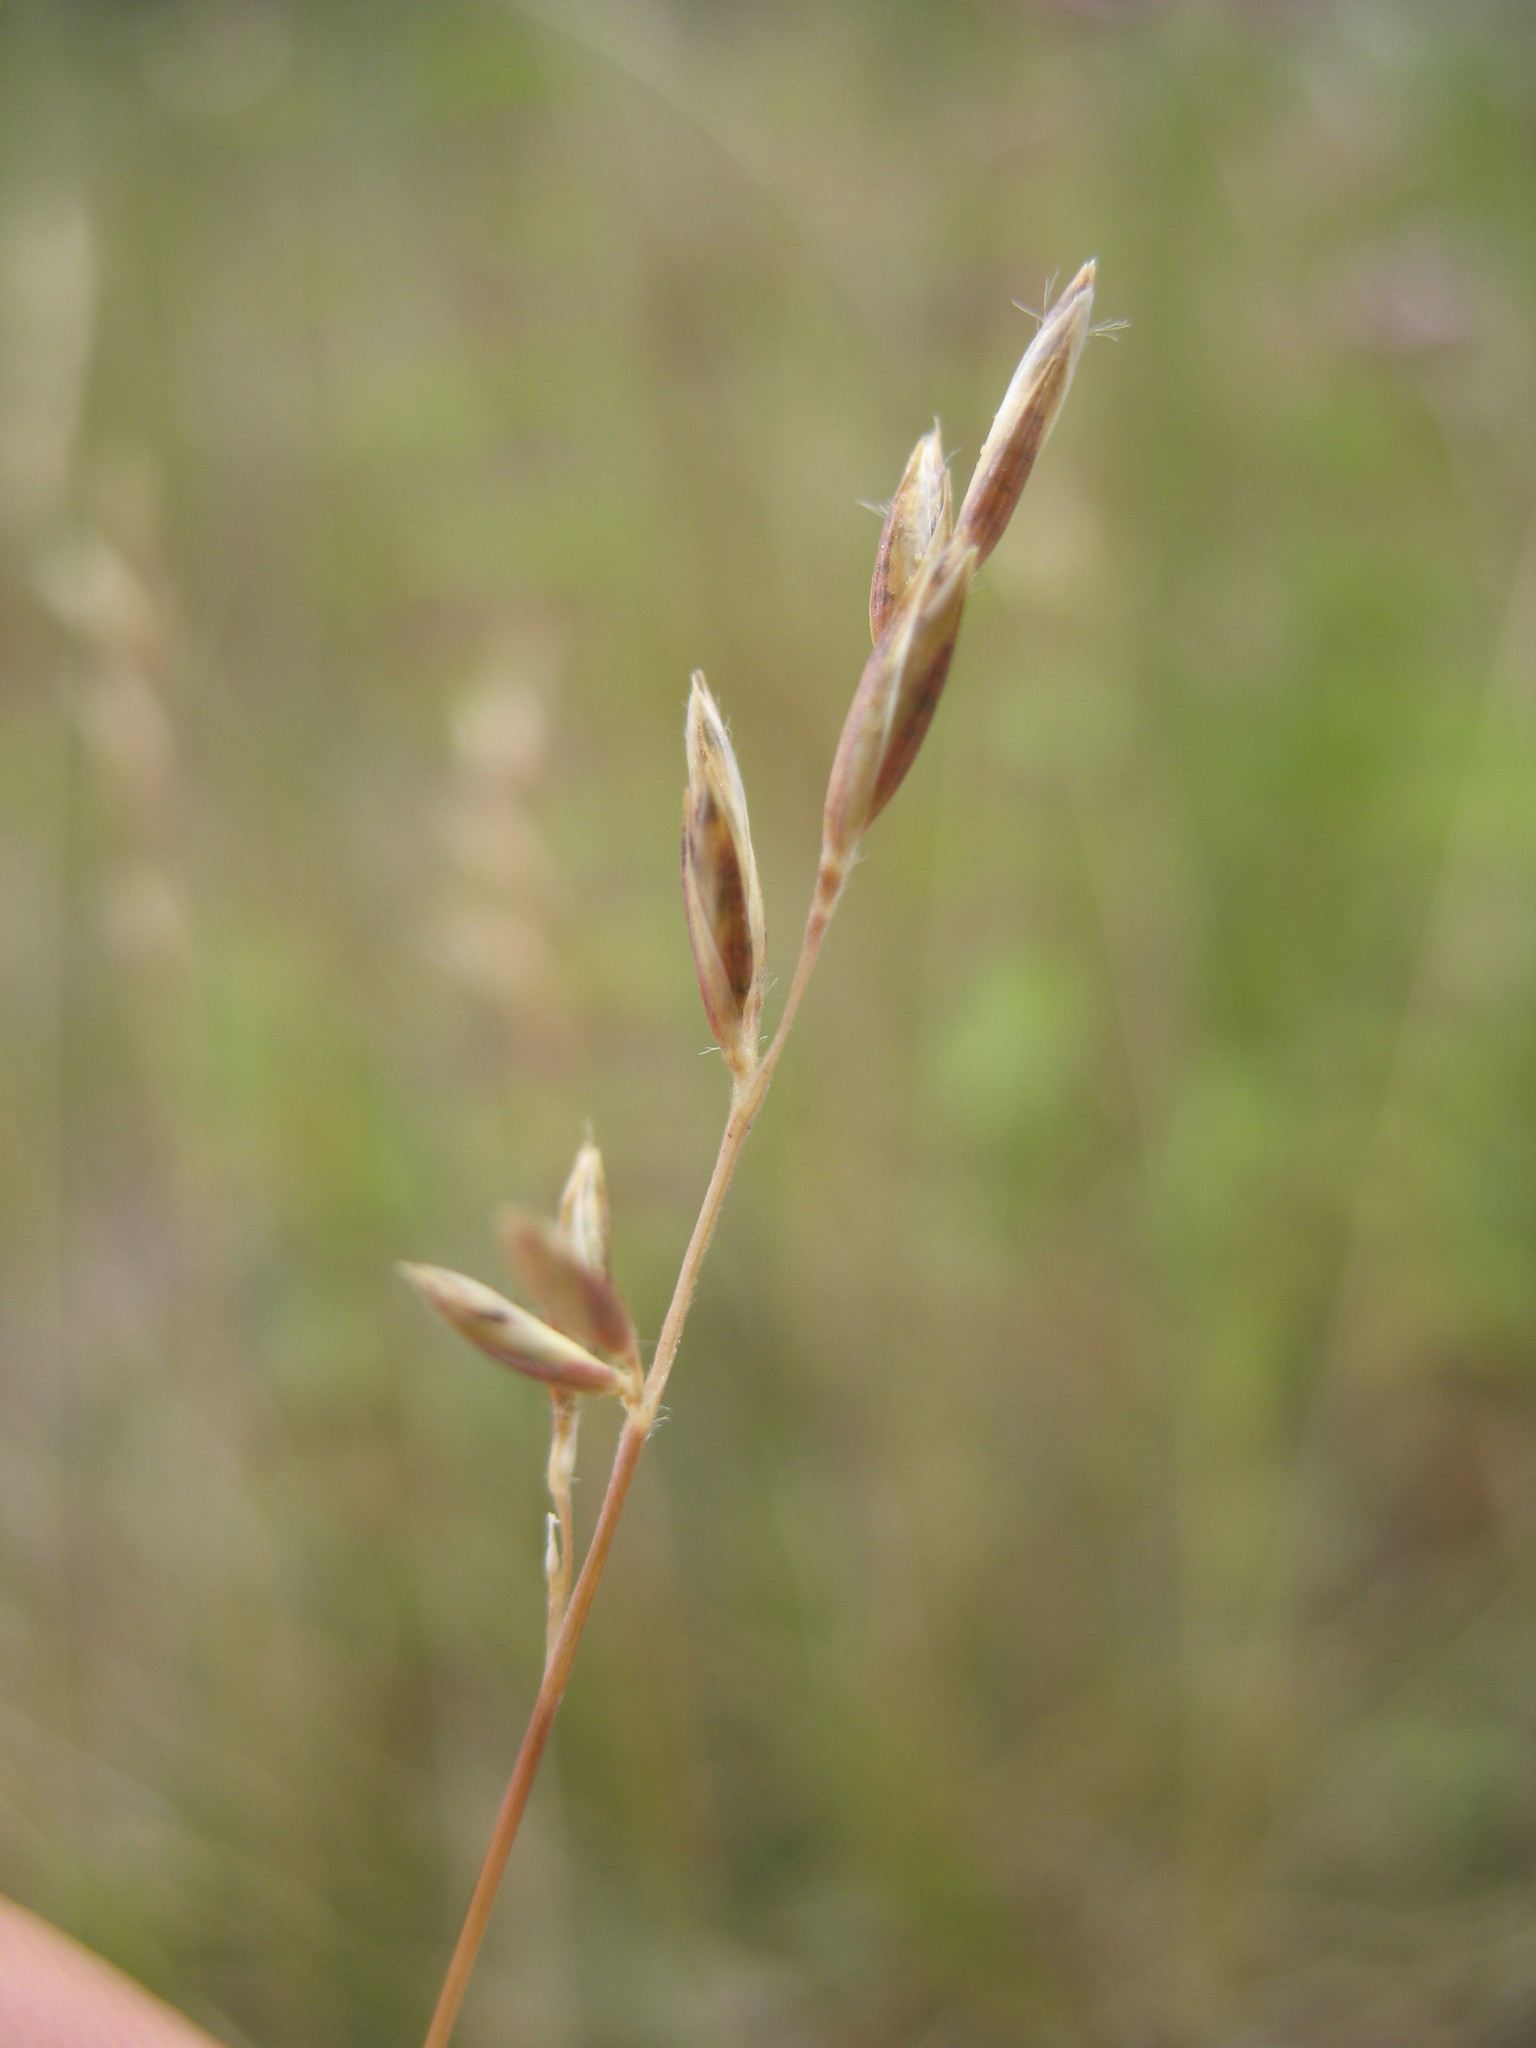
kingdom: Plantae
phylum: Tracheophyta
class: Liliopsida
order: Poales
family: Poaceae
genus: Rytidosperma
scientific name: Rytidosperma thomsonii
